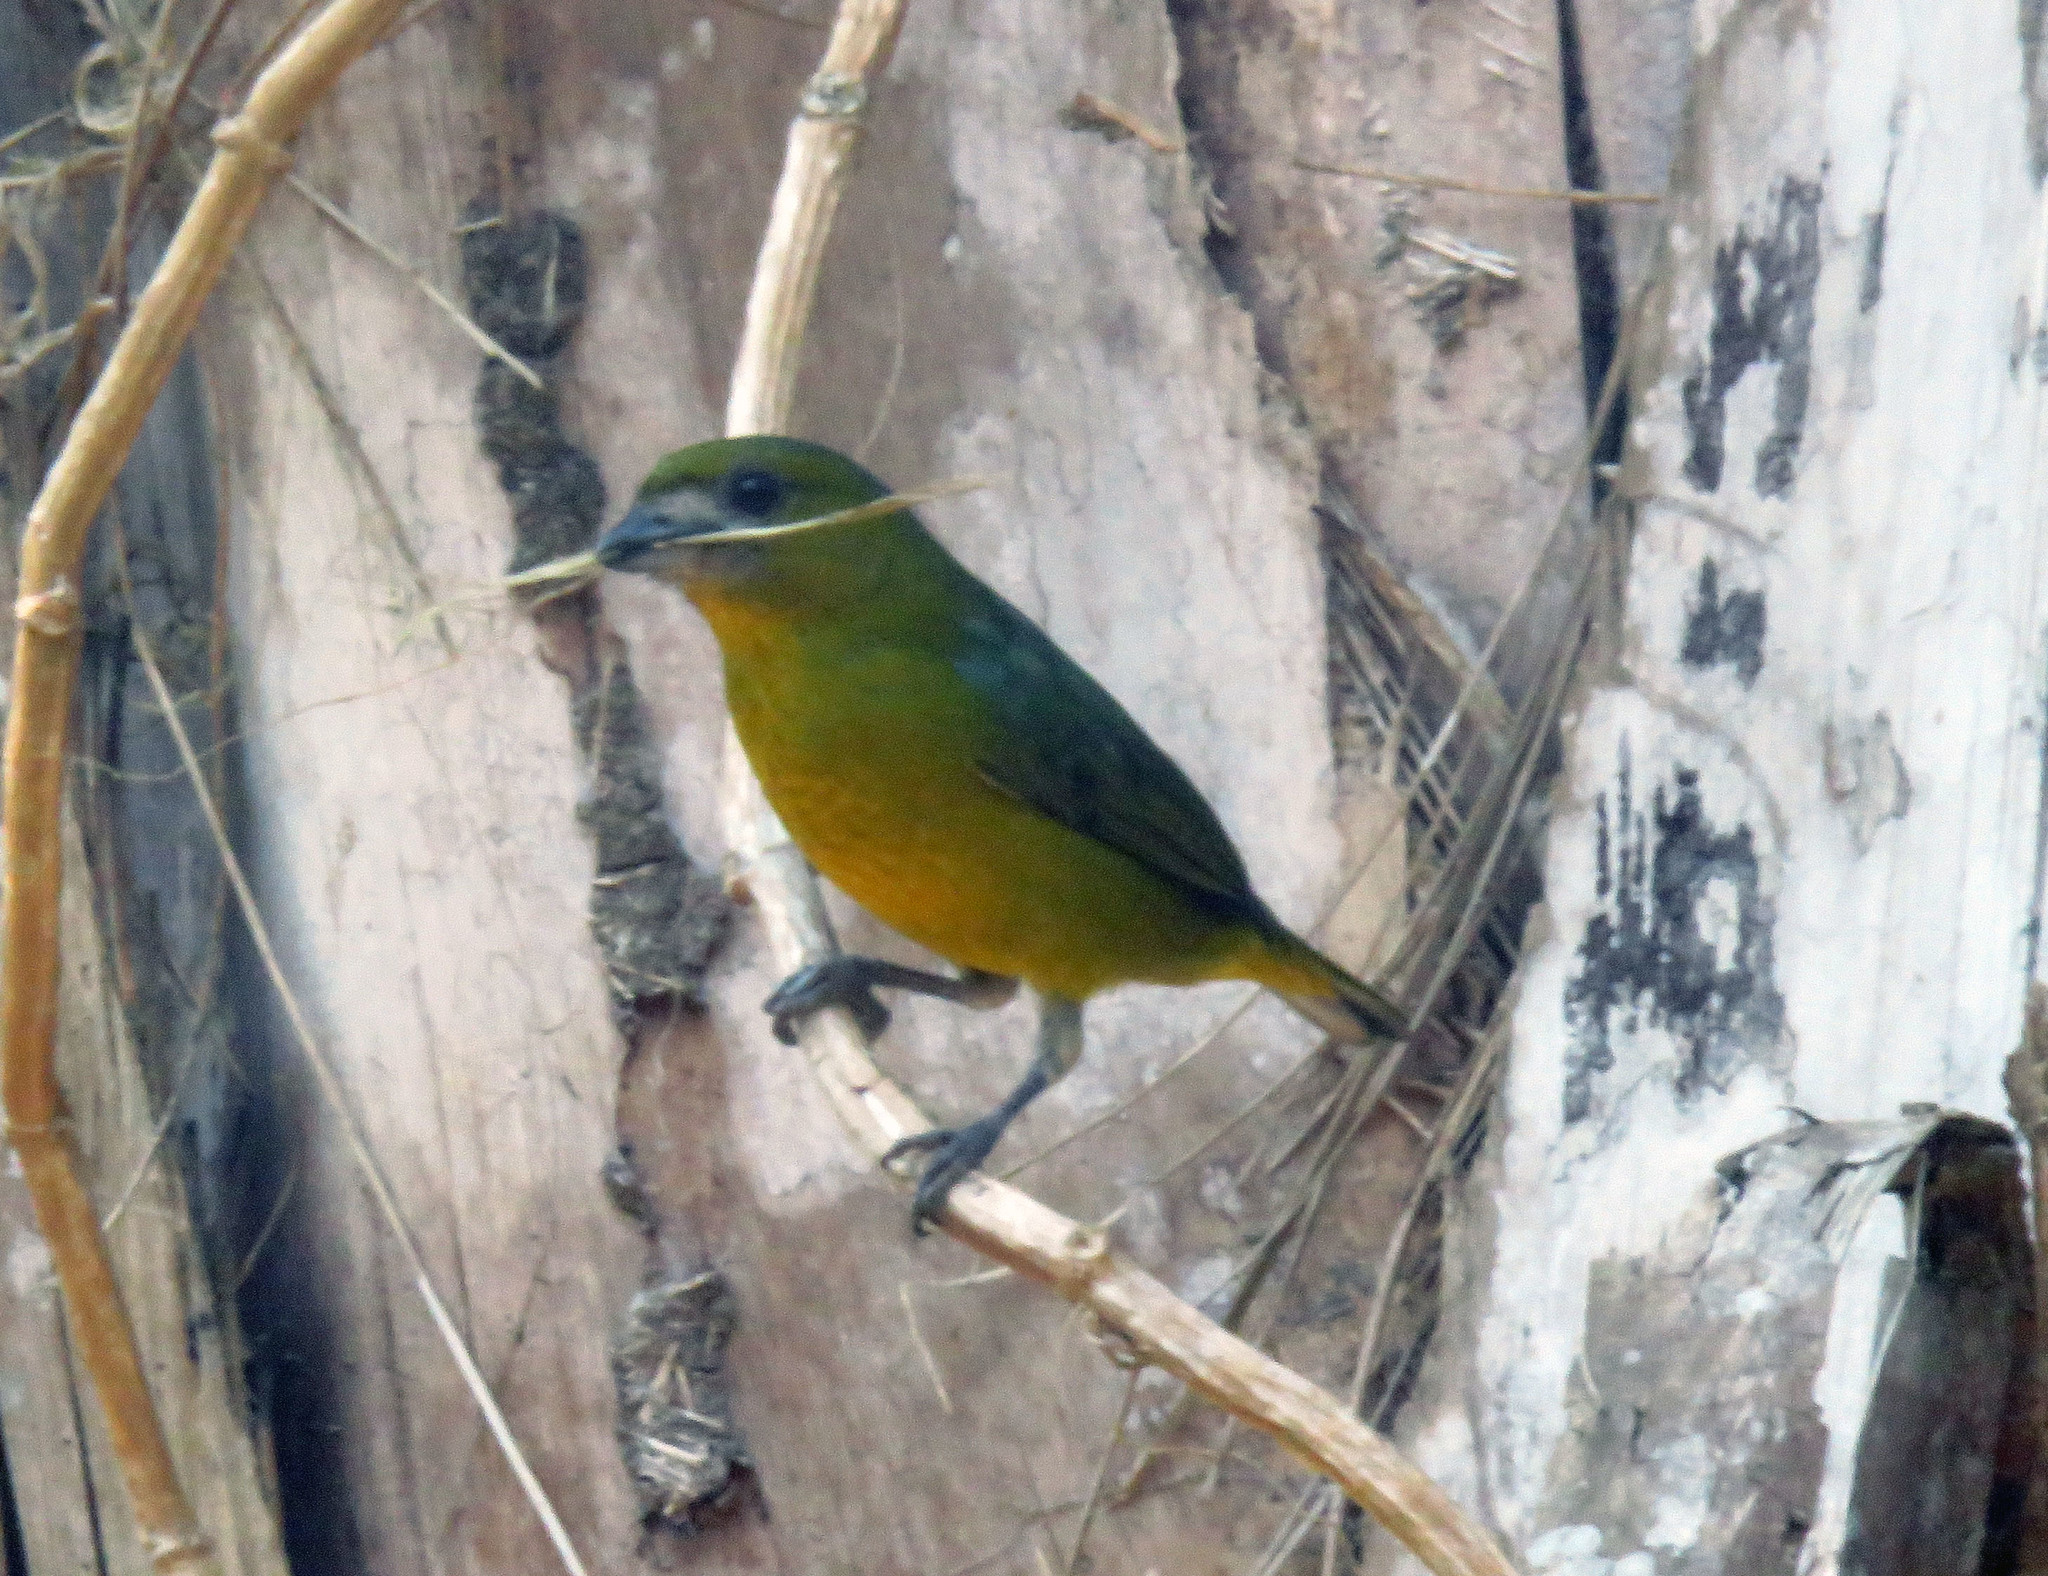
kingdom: Animalia
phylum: Chordata
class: Aves
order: Passeriformes
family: Fringillidae
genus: Euphonia
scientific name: Euphonia chrysopasta
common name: White-lored euphonia
